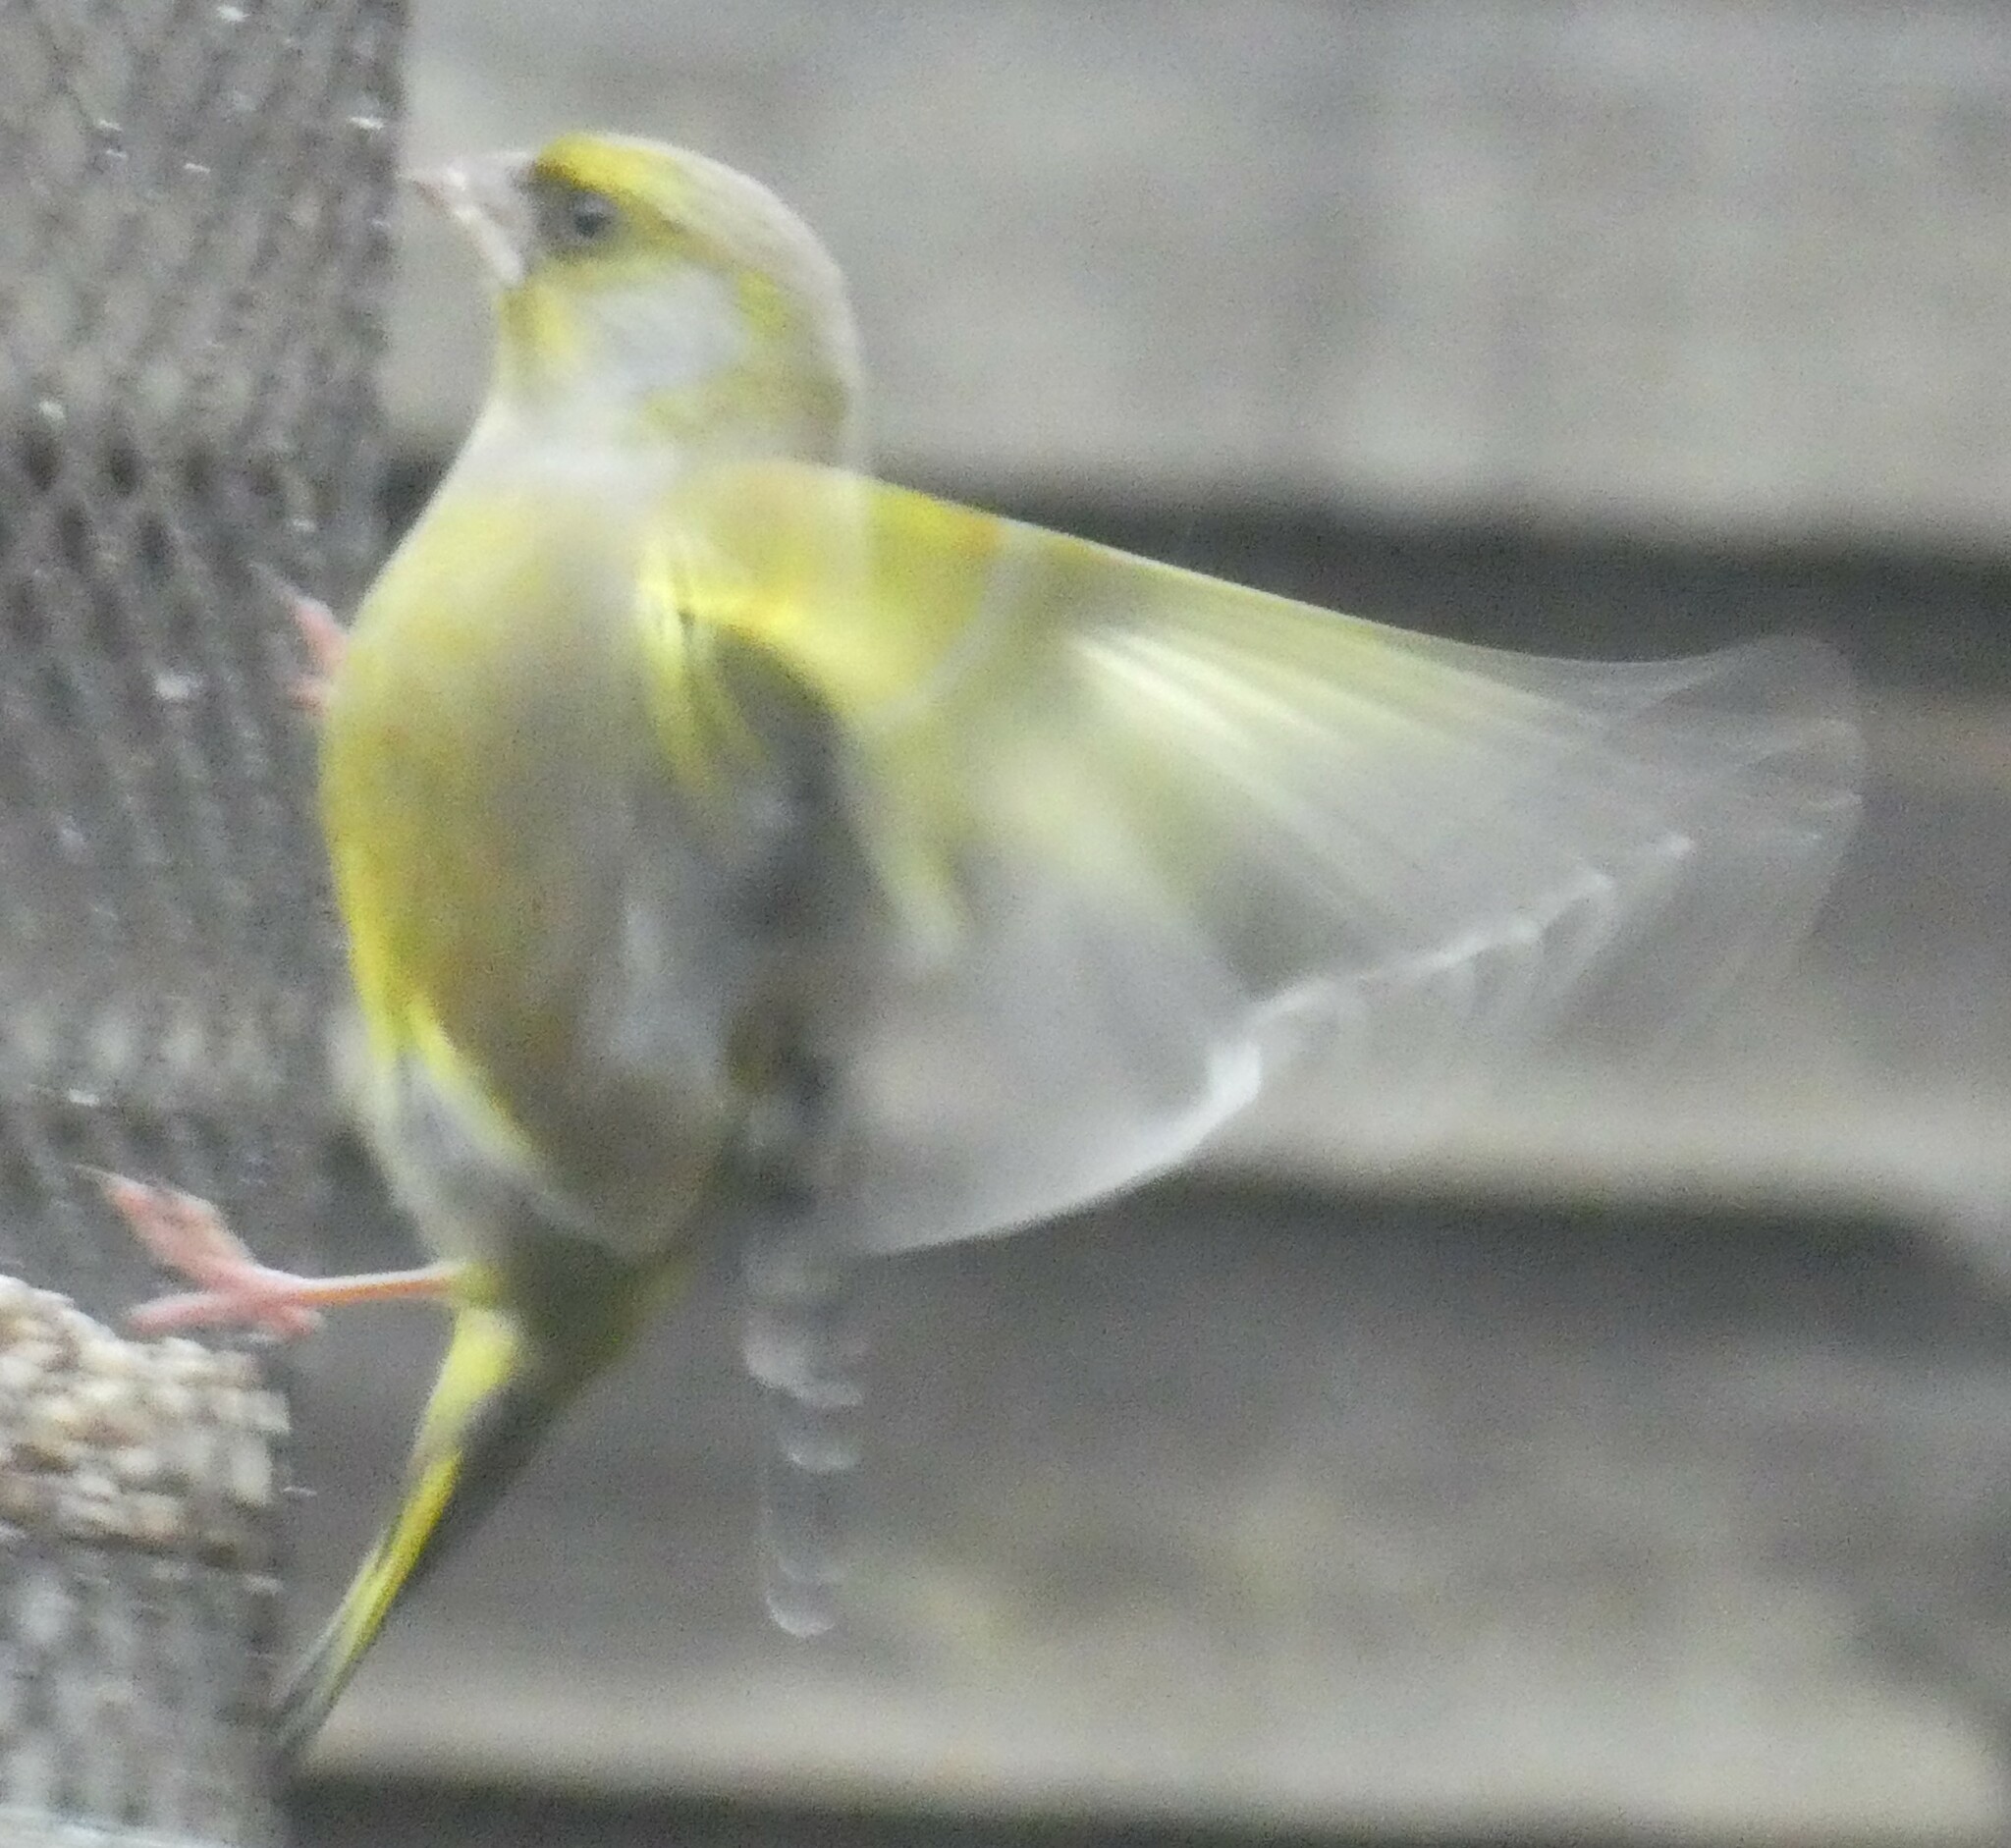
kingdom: Plantae
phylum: Tracheophyta
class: Liliopsida
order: Poales
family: Poaceae
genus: Chloris
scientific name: Chloris chloris
